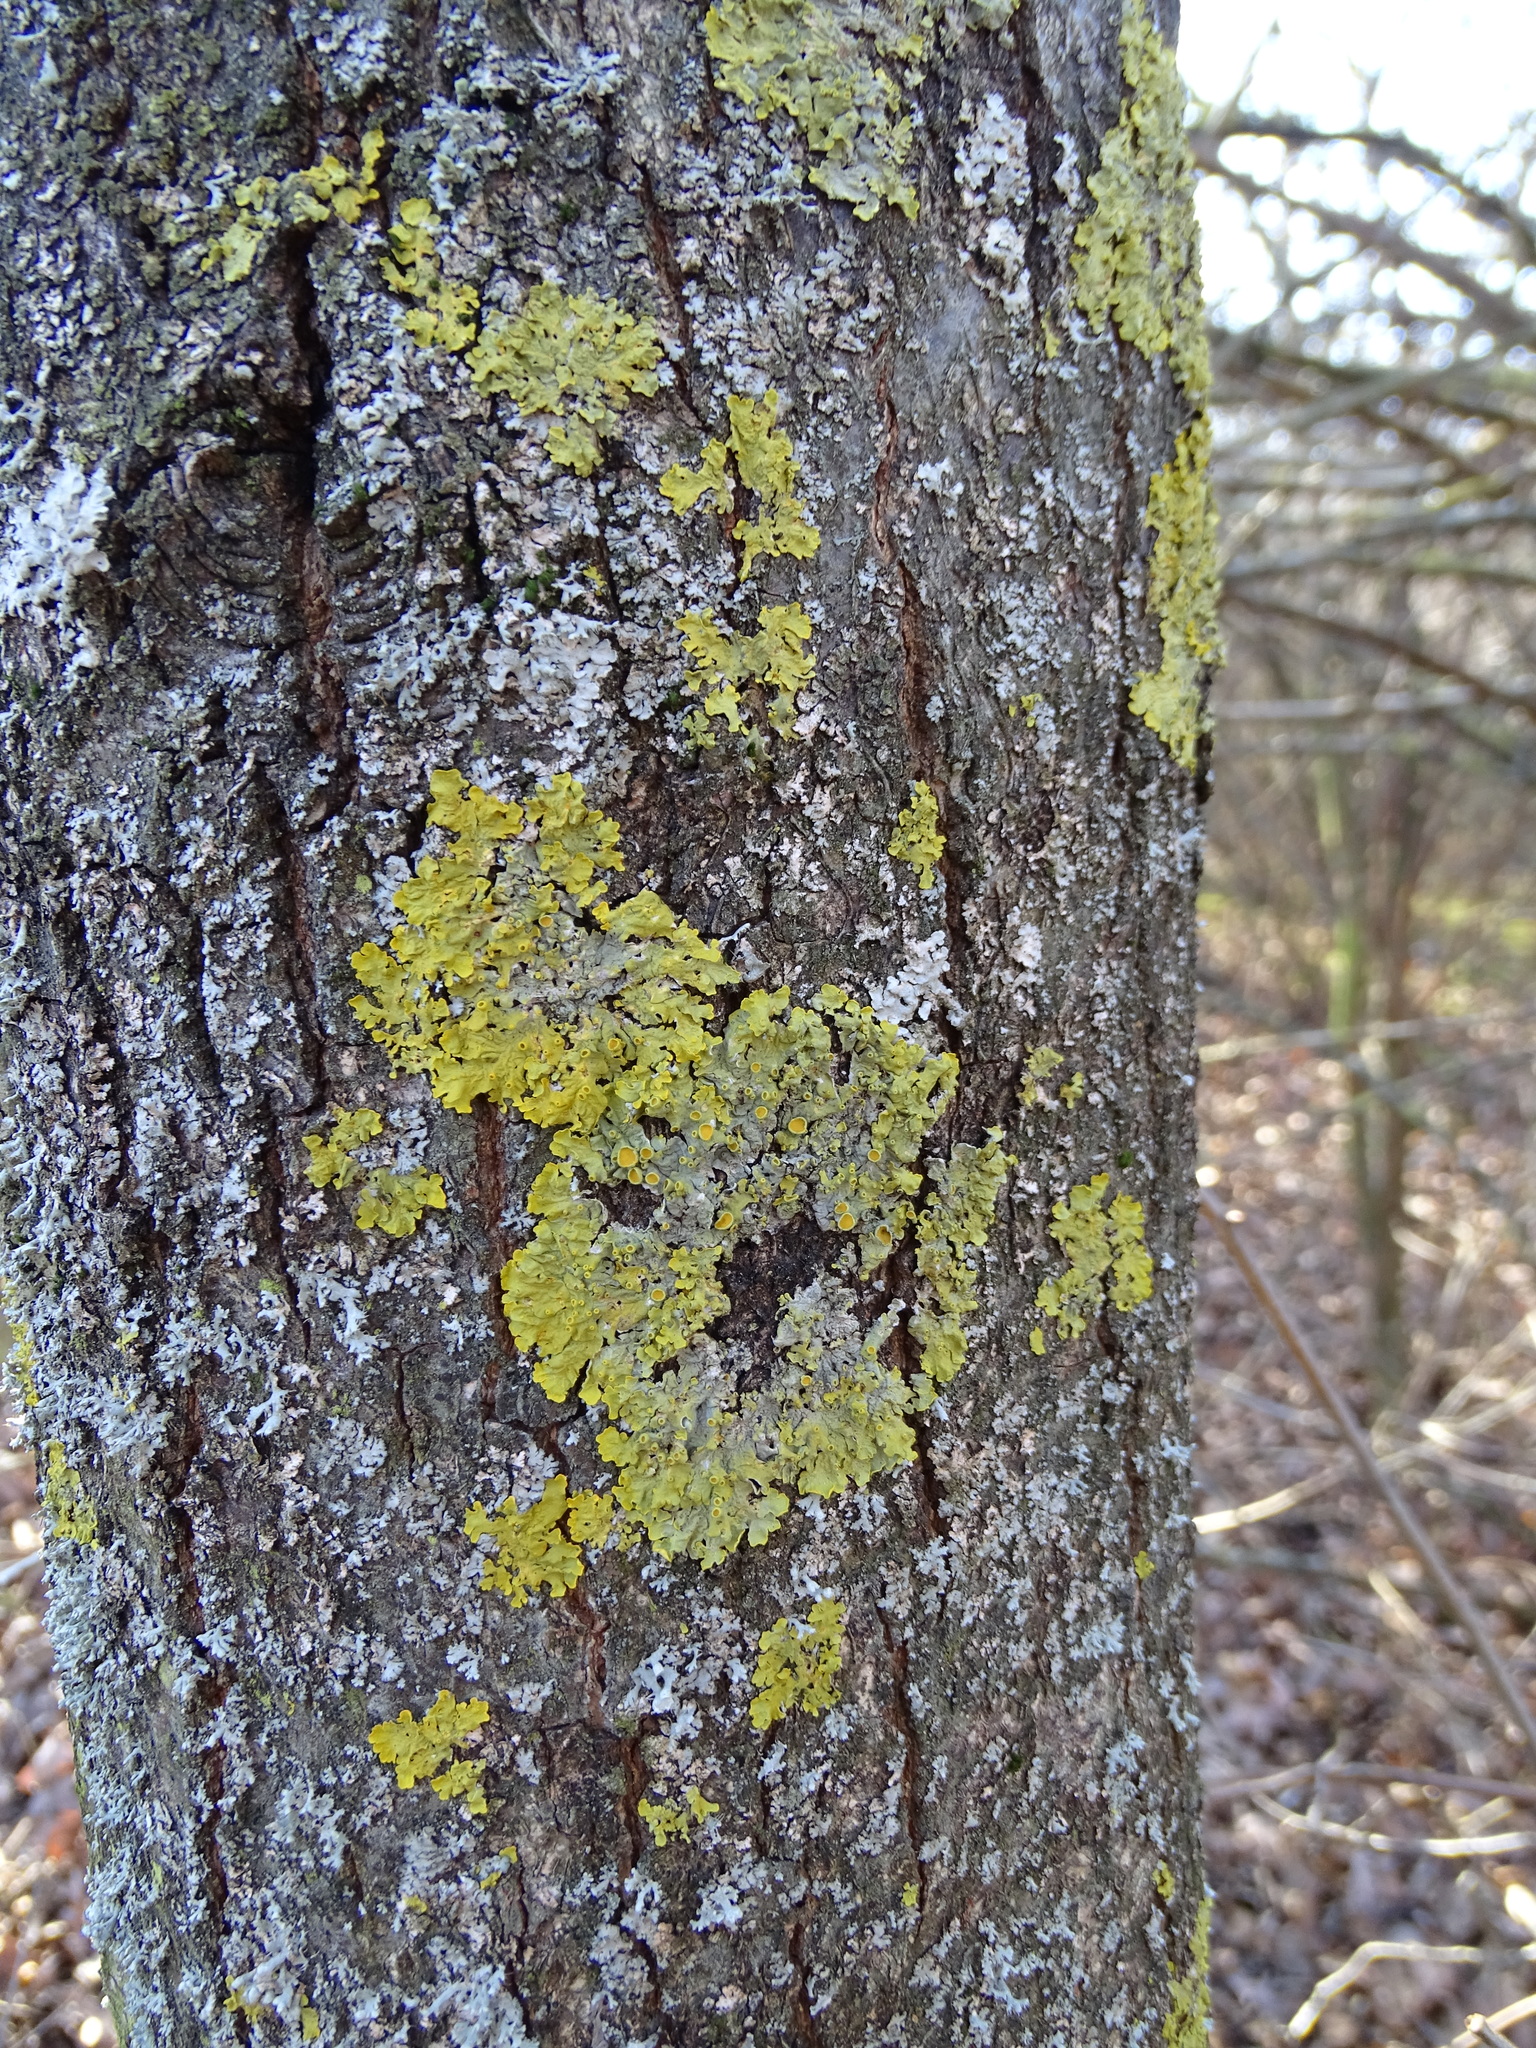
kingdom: Fungi
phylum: Ascomycota
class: Lecanoromycetes
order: Teloschistales
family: Teloschistaceae
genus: Xanthoria
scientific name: Xanthoria parietina
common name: Common orange lichen
